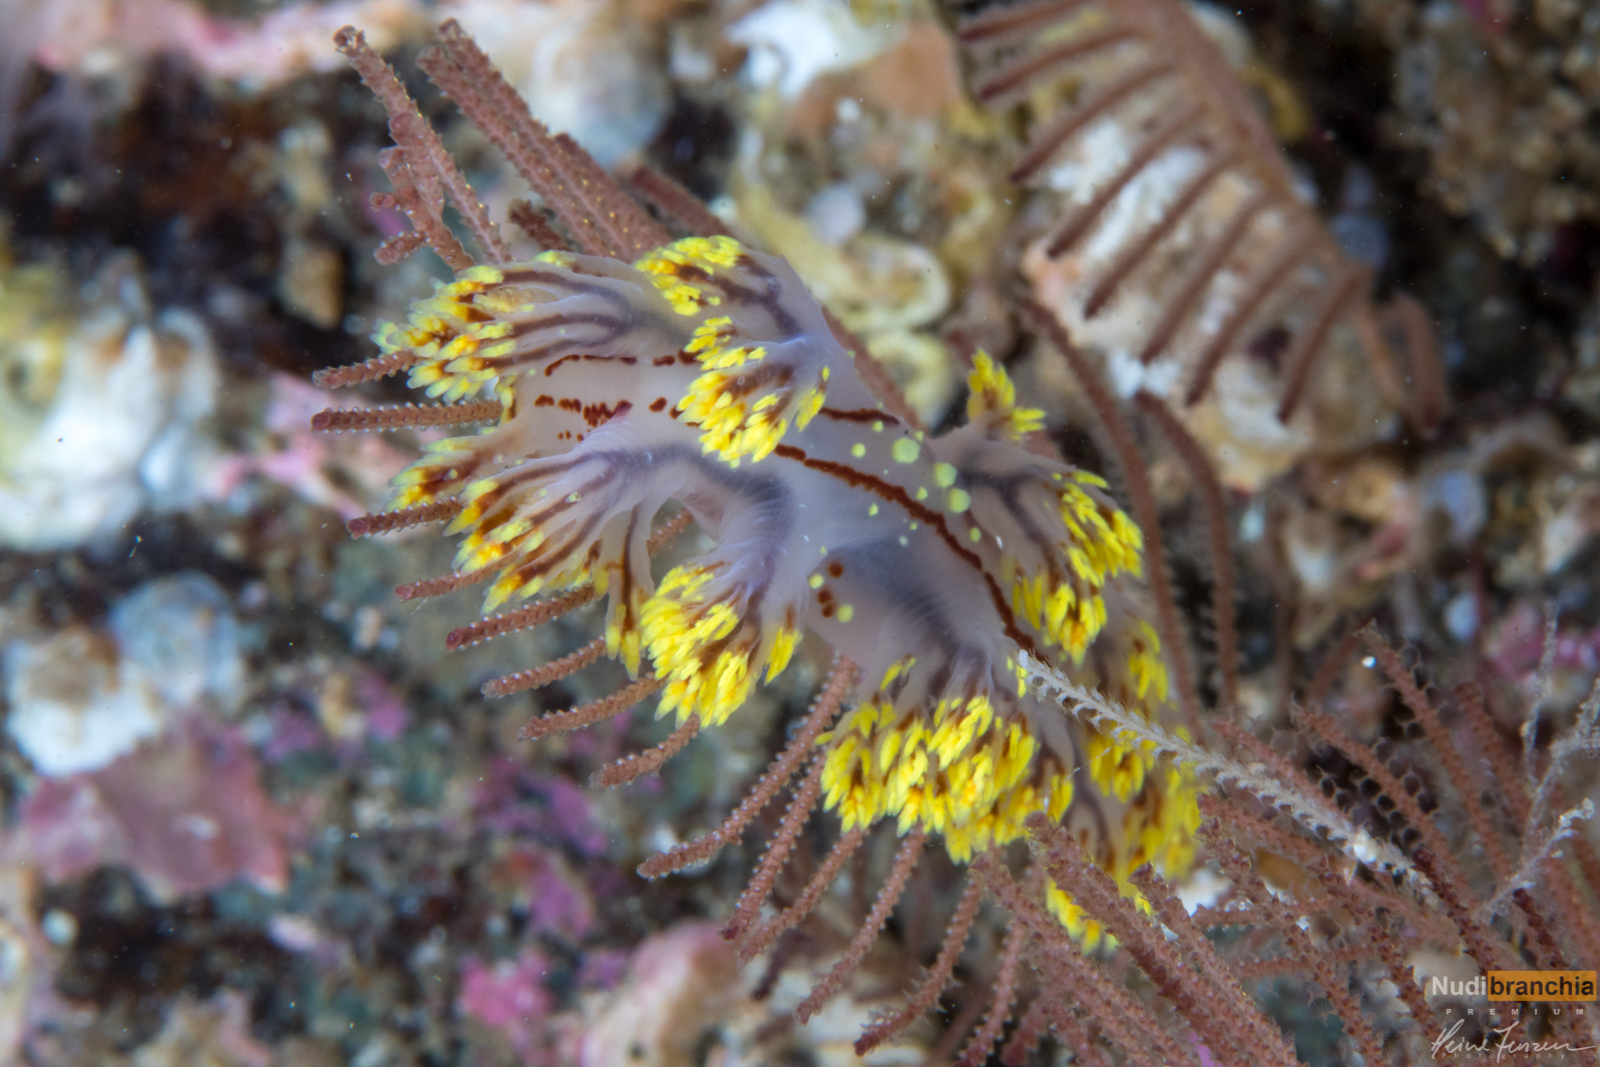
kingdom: Animalia
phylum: Mollusca
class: Gastropoda
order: Nudibranchia
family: Dendronotidae
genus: Dendronotus
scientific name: Dendronotus yrjargul
